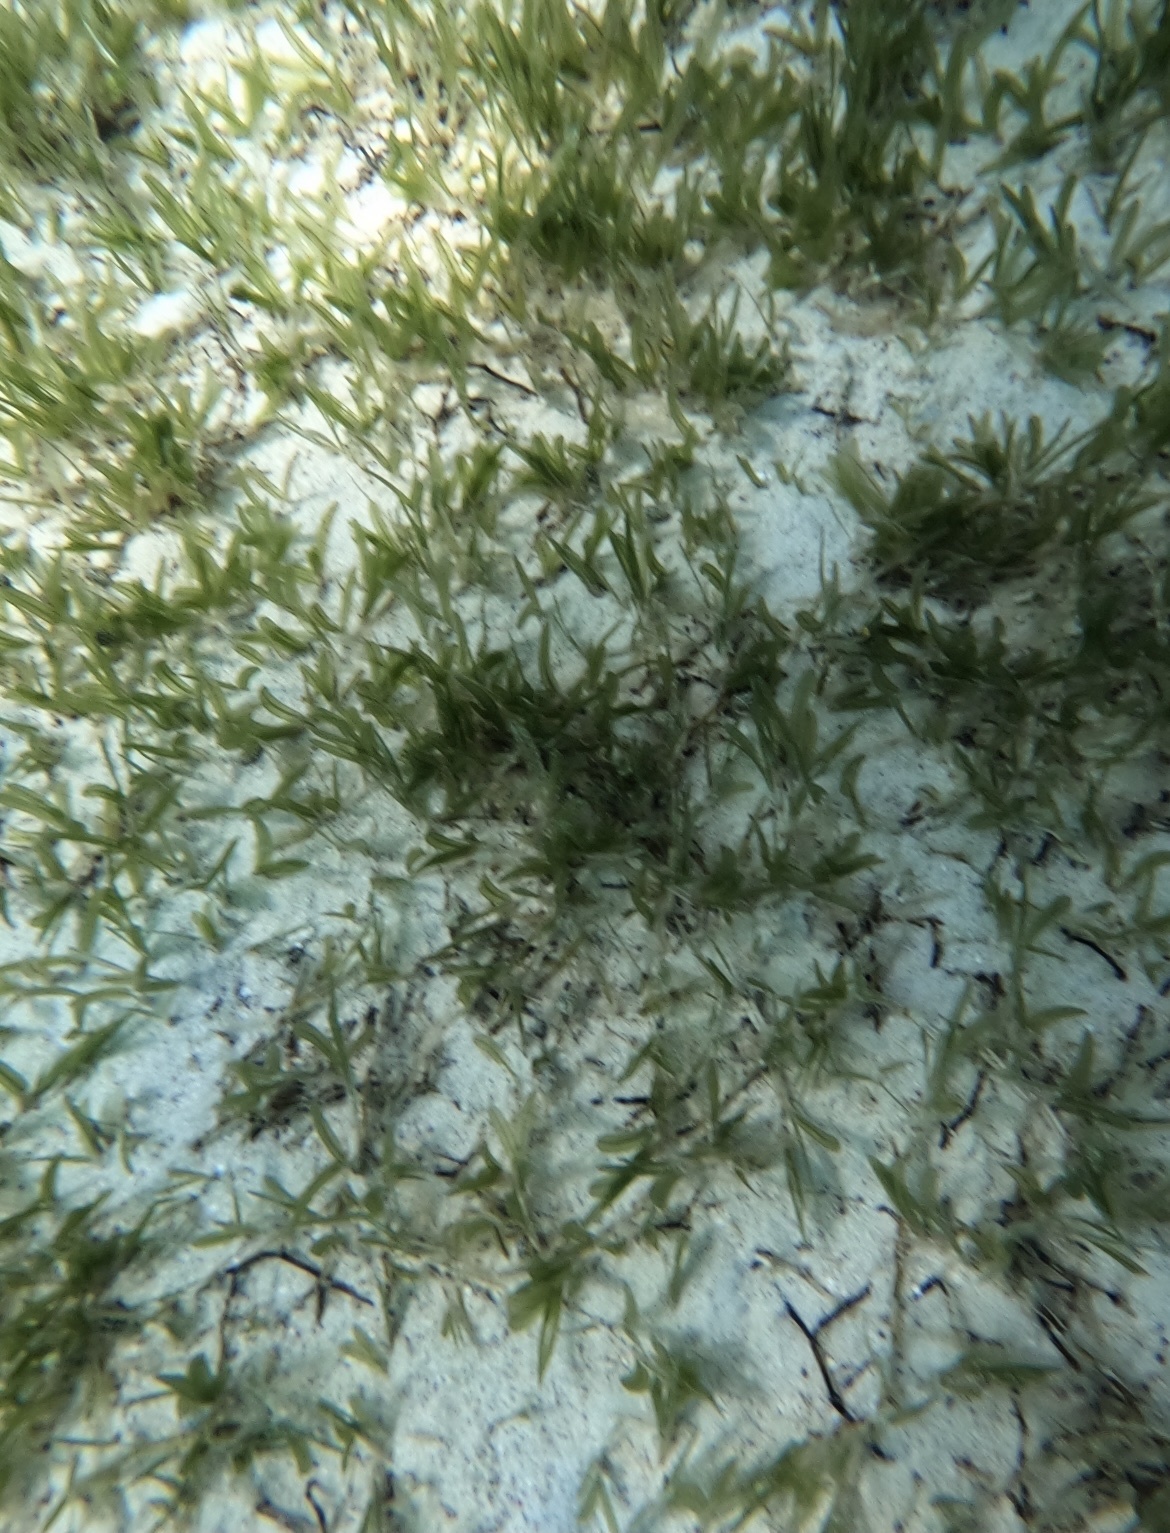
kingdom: Plantae
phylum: Tracheophyta
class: Liliopsida
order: Alismatales
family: Hydrocharitaceae
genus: Halophila
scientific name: Halophila stipulacea
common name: Species code: hs
